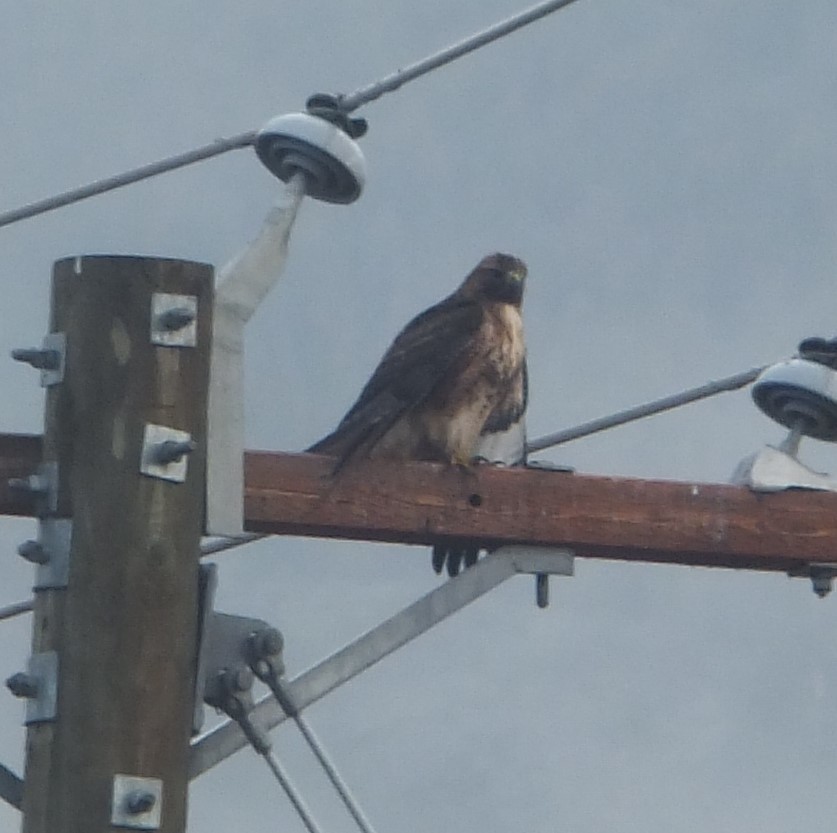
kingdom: Animalia
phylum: Chordata
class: Aves
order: Accipitriformes
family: Accipitridae
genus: Buteo
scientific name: Buteo jamaicensis
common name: Red-tailed hawk
